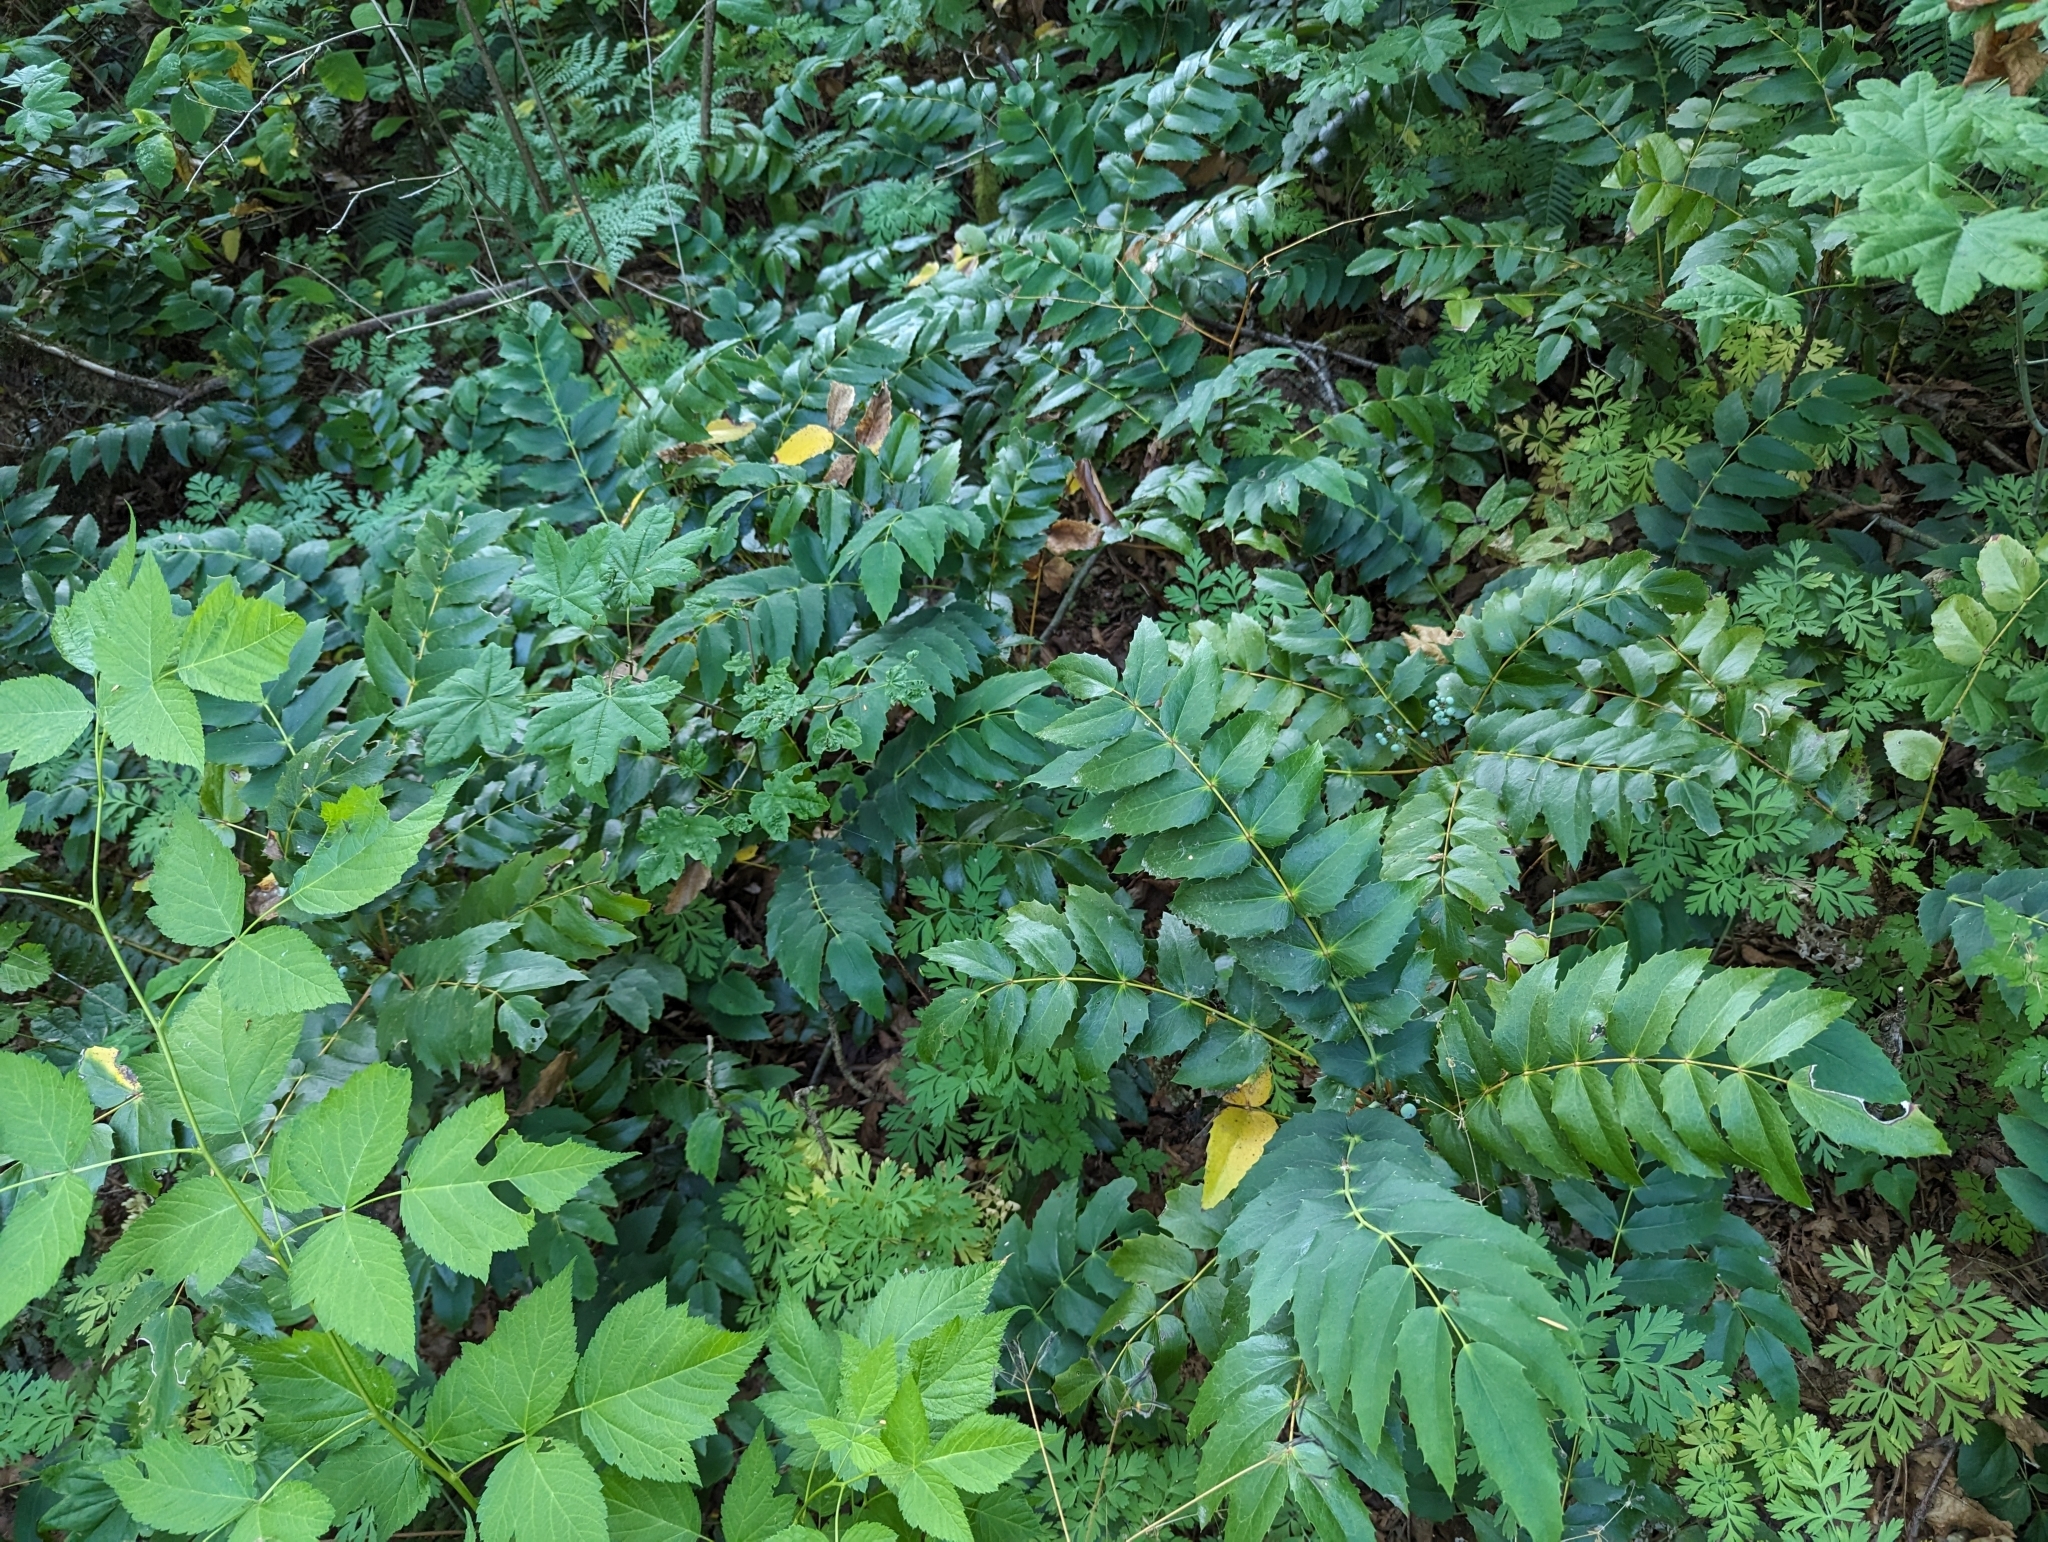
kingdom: Plantae
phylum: Tracheophyta
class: Magnoliopsida
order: Ranunculales
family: Berberidaceae
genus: Mahonia
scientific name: Mahonia nervosa
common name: Cascade oregon-grape
